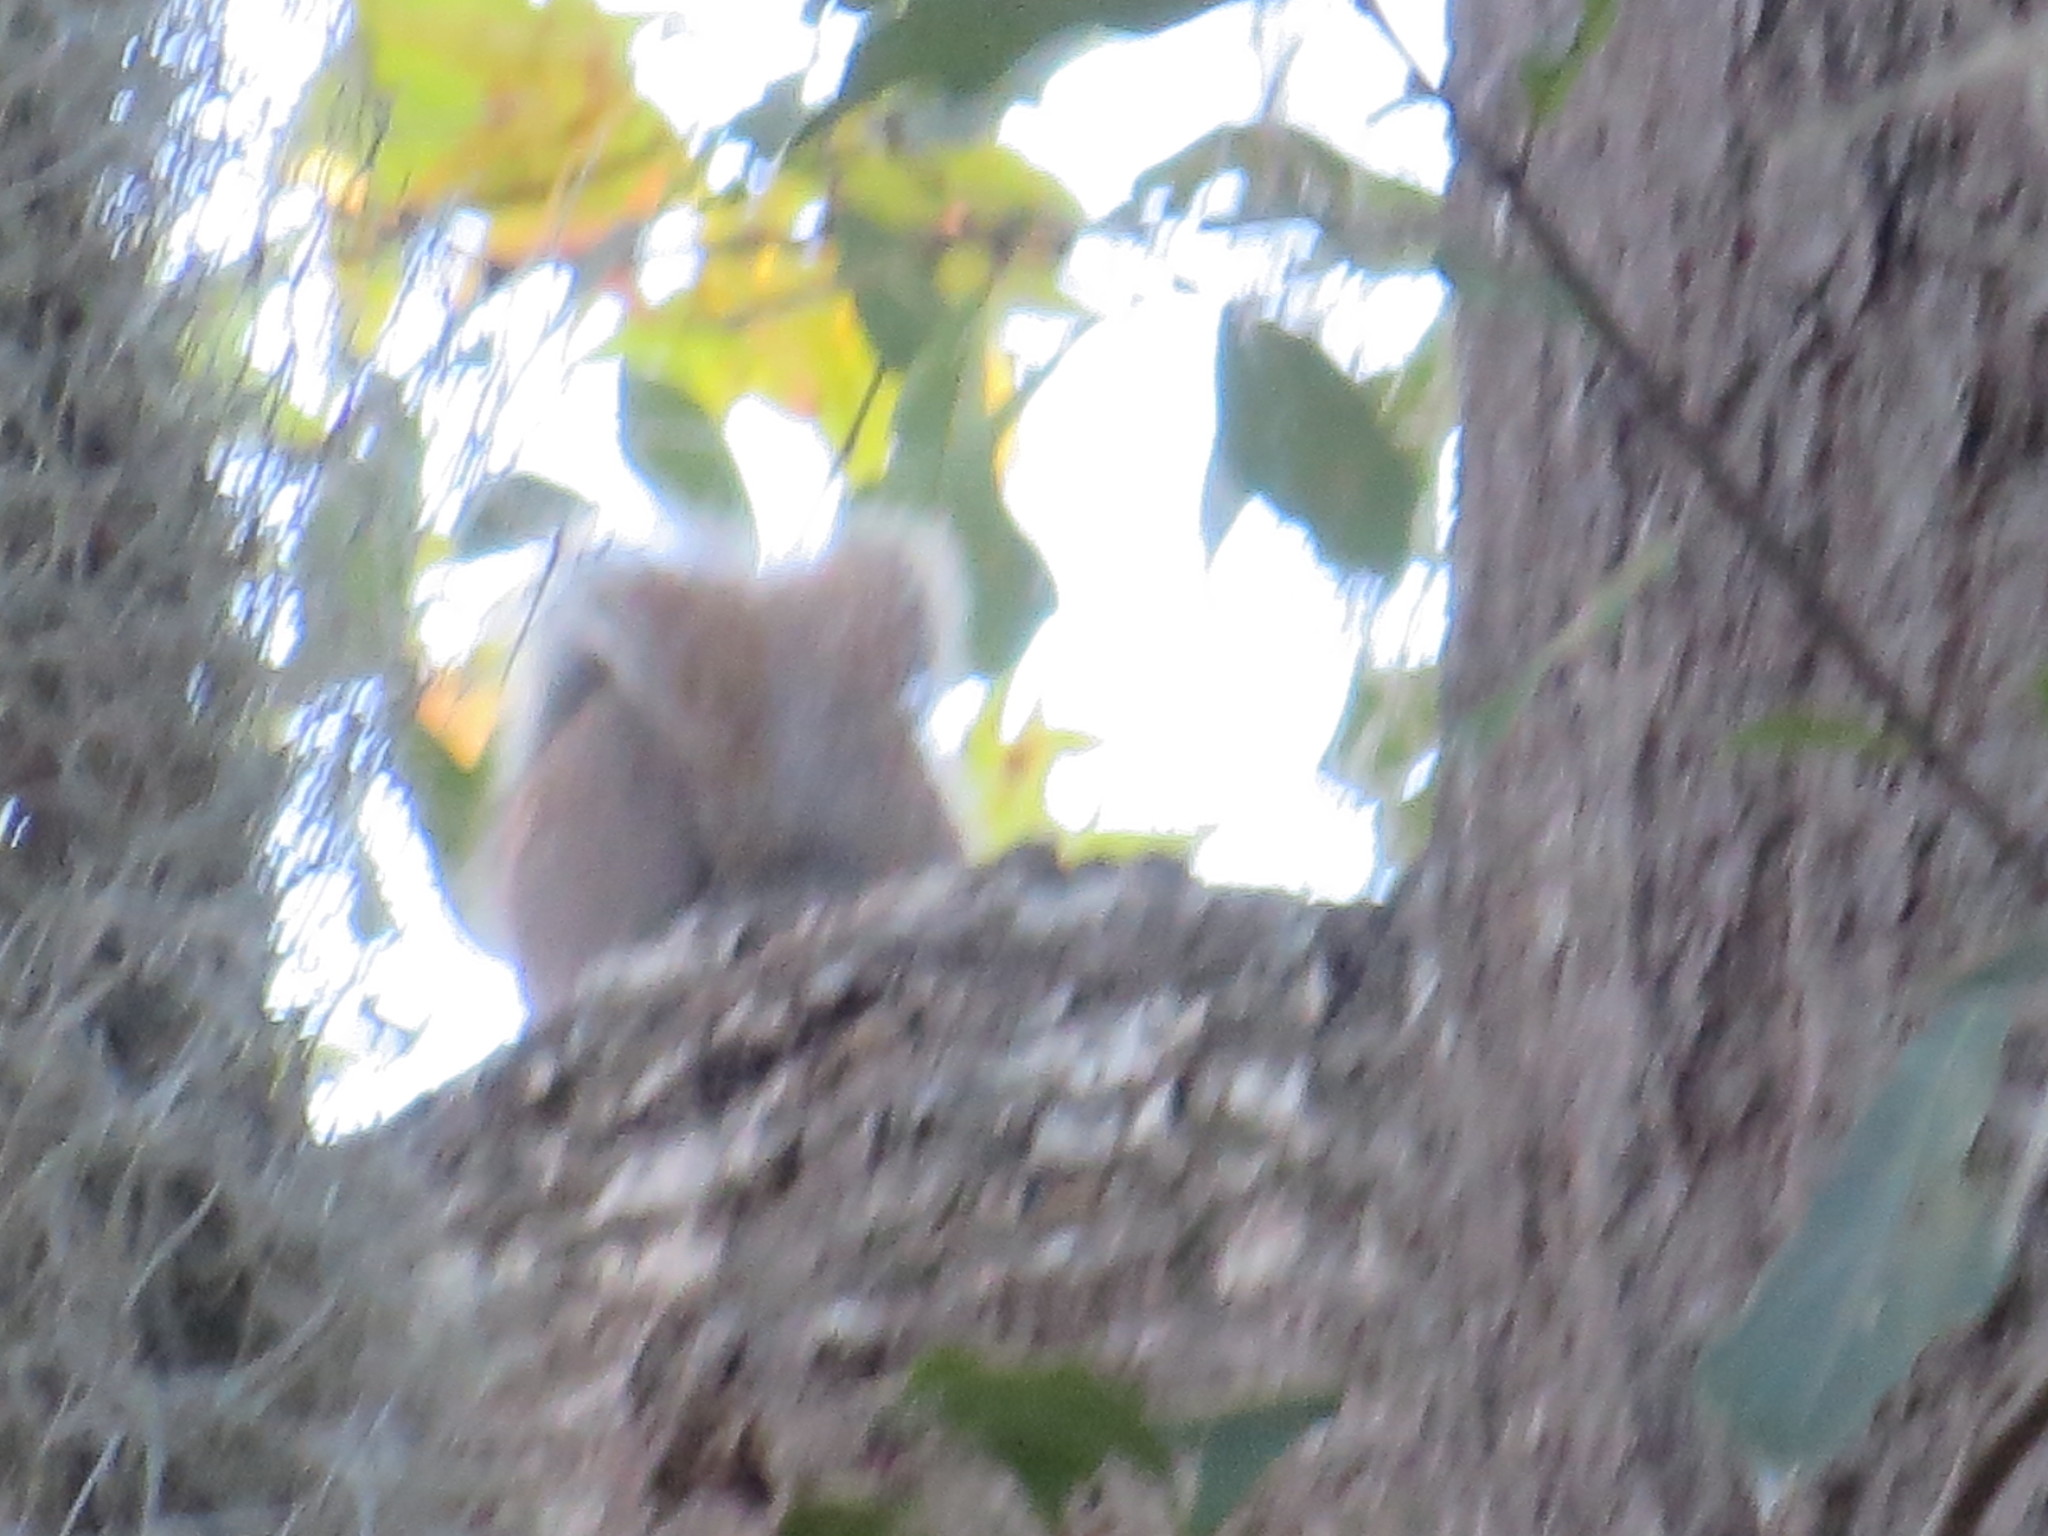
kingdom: Animalia
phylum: Chordata
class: Mammalia
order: Rodentia
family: Sciuridae
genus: Sciurus
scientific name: Sciurus carolinensis
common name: Eastern gray squirrel
